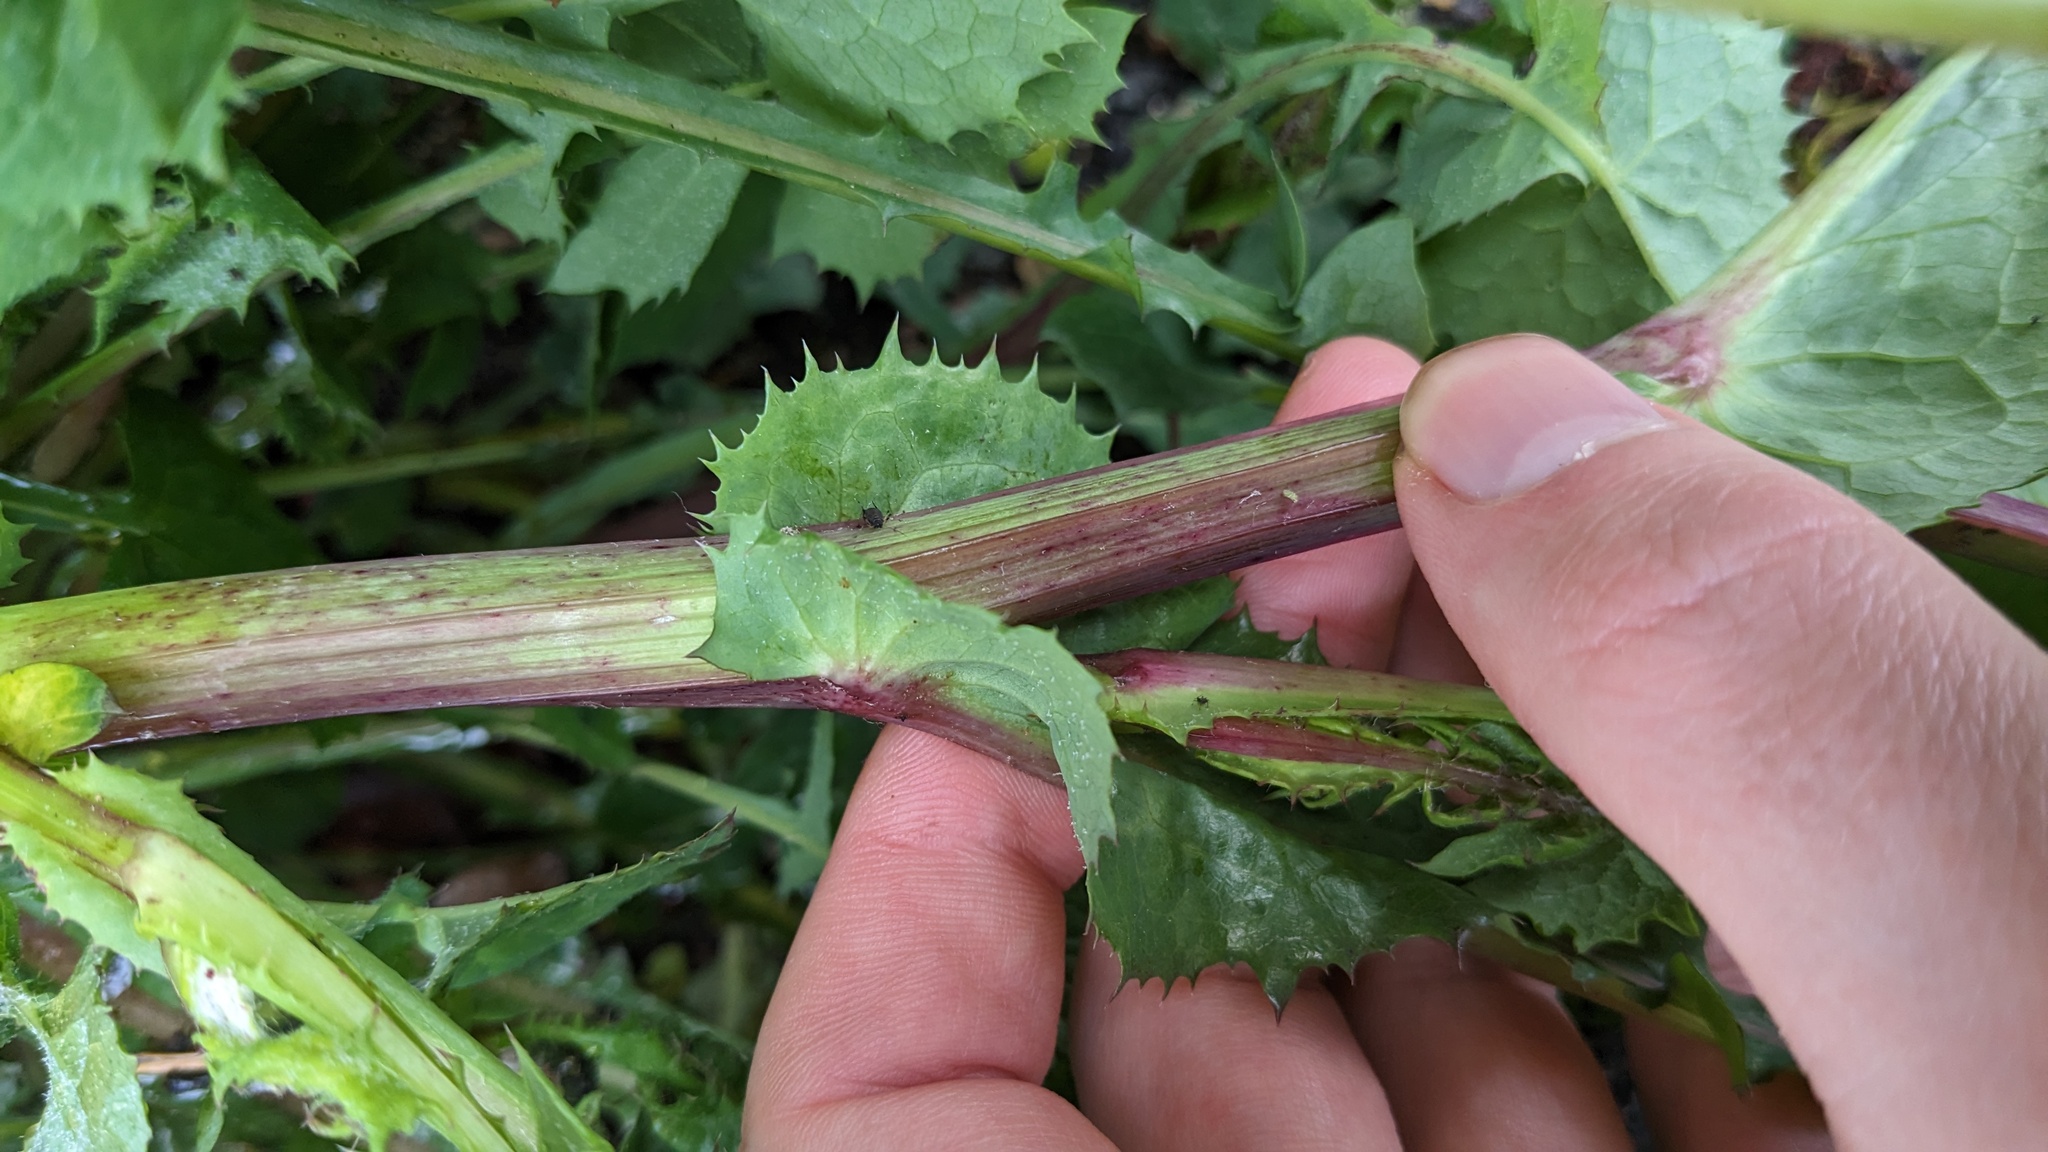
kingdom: Plantae
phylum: Tracheophyta
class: Magnoliopsida
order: Asterales
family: Asteraceae
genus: Sonchus
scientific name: Sonchus oleraceus
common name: Common sowthistle
